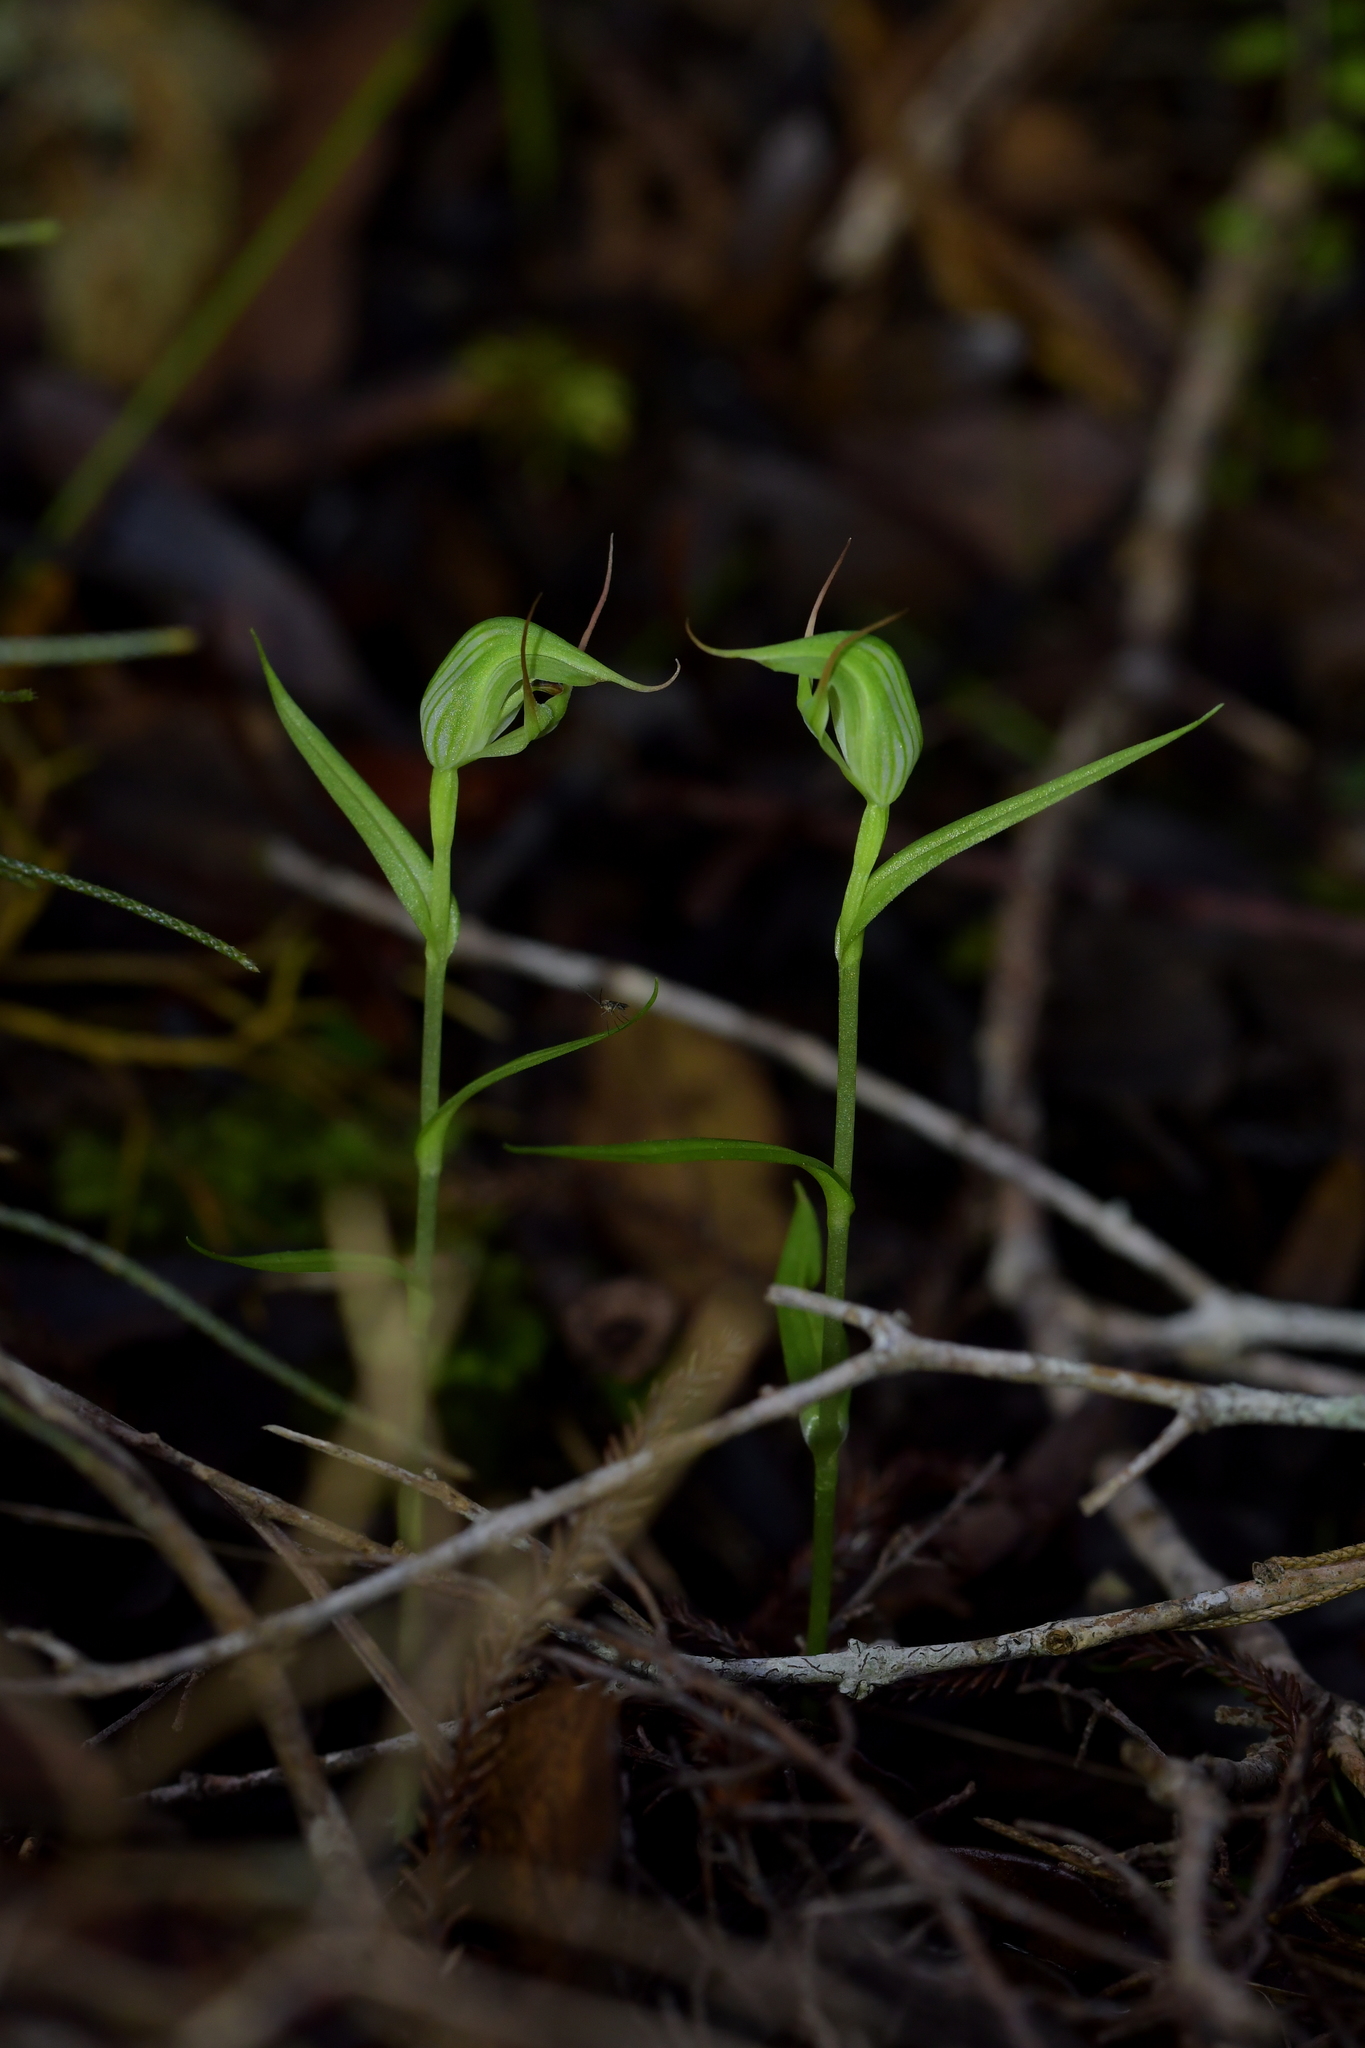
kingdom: Plantae
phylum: Tracheophyta
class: Liliopsida
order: Asparagales
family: Orchidaceae
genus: Pterostylis
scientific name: Pterostylis agathicola
